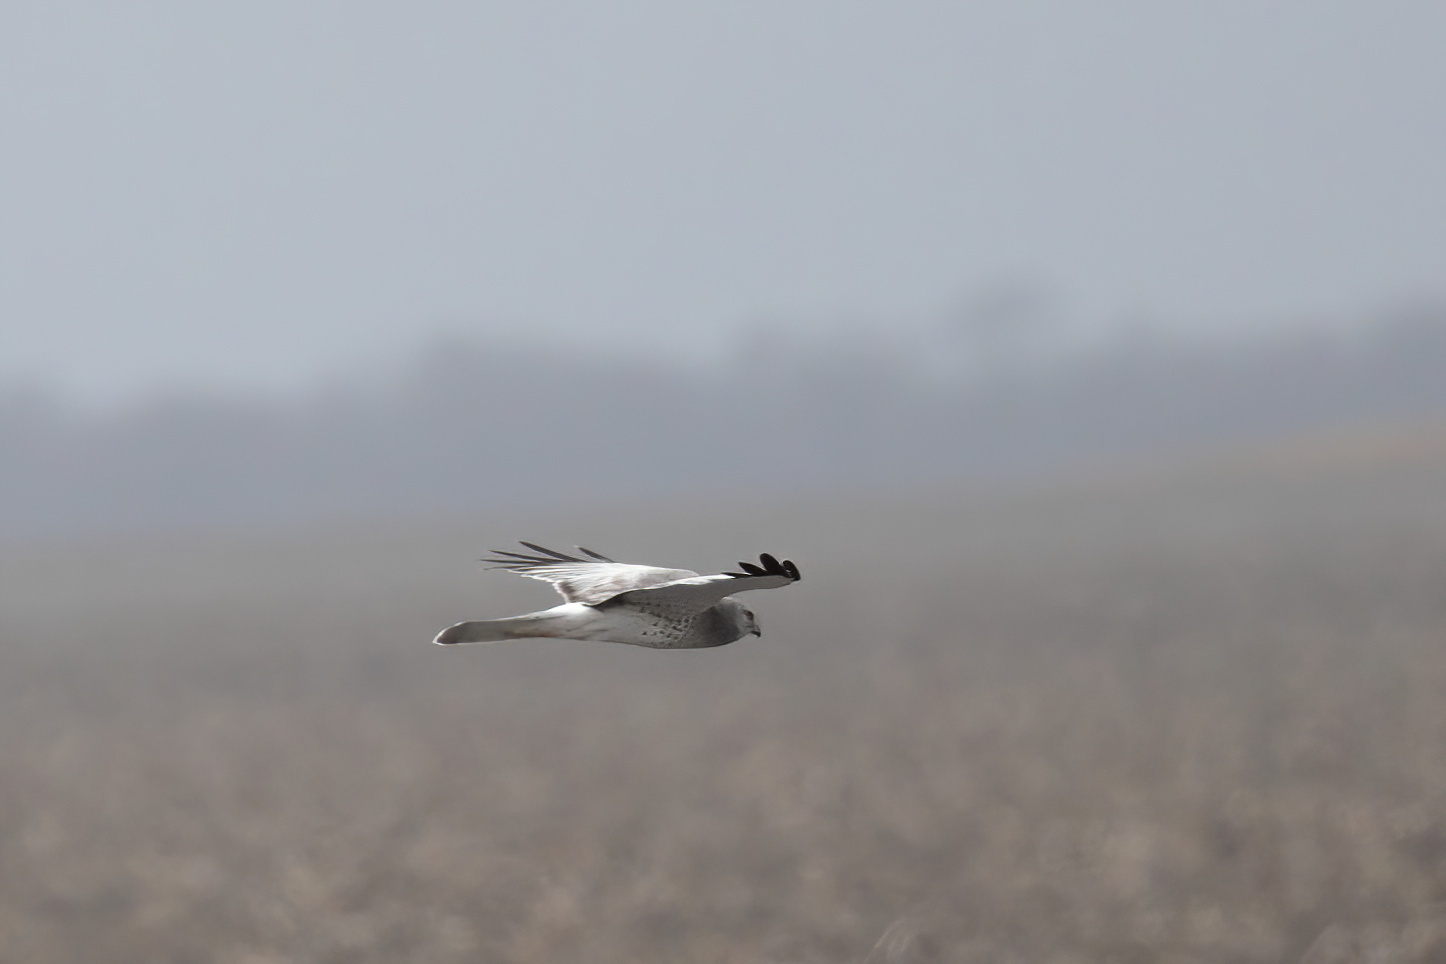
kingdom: Animalia
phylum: Chordata
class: Aves
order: Accipitriformes
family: Accipitridae
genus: Circus
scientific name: Circus cyaneus
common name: Hen harrier
